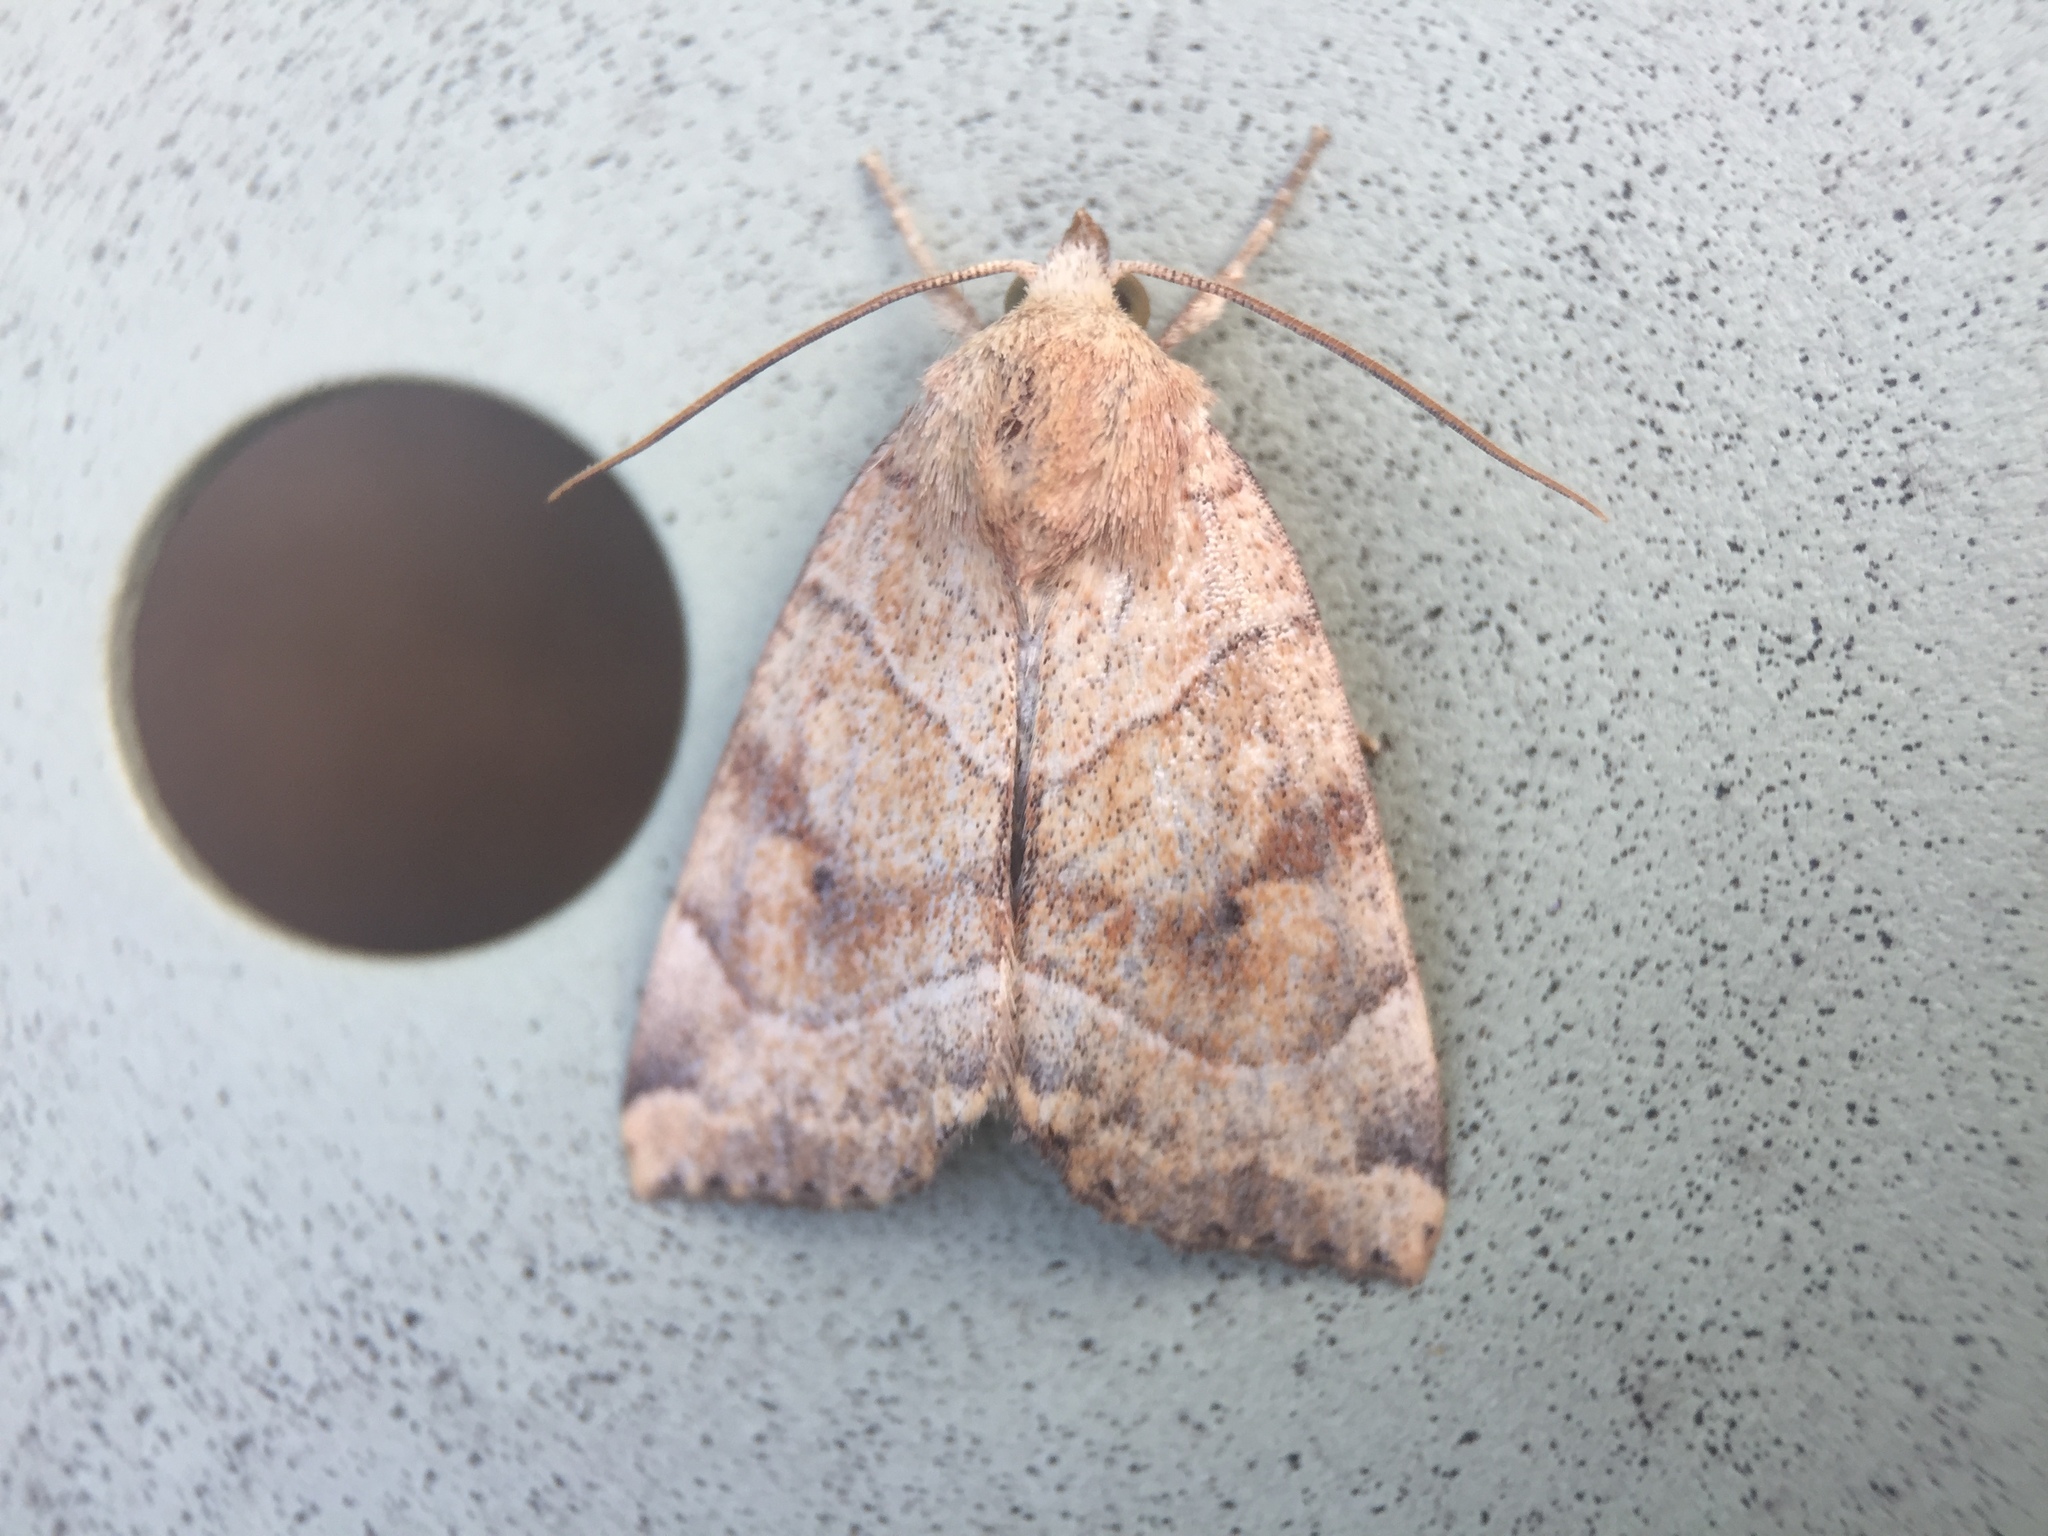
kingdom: Animalia
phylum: Arthropoda
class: Insecta
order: Lepidoptera
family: Noctuidae
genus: Cosmia
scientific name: Cosmia trapezina
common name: Dun-bar
